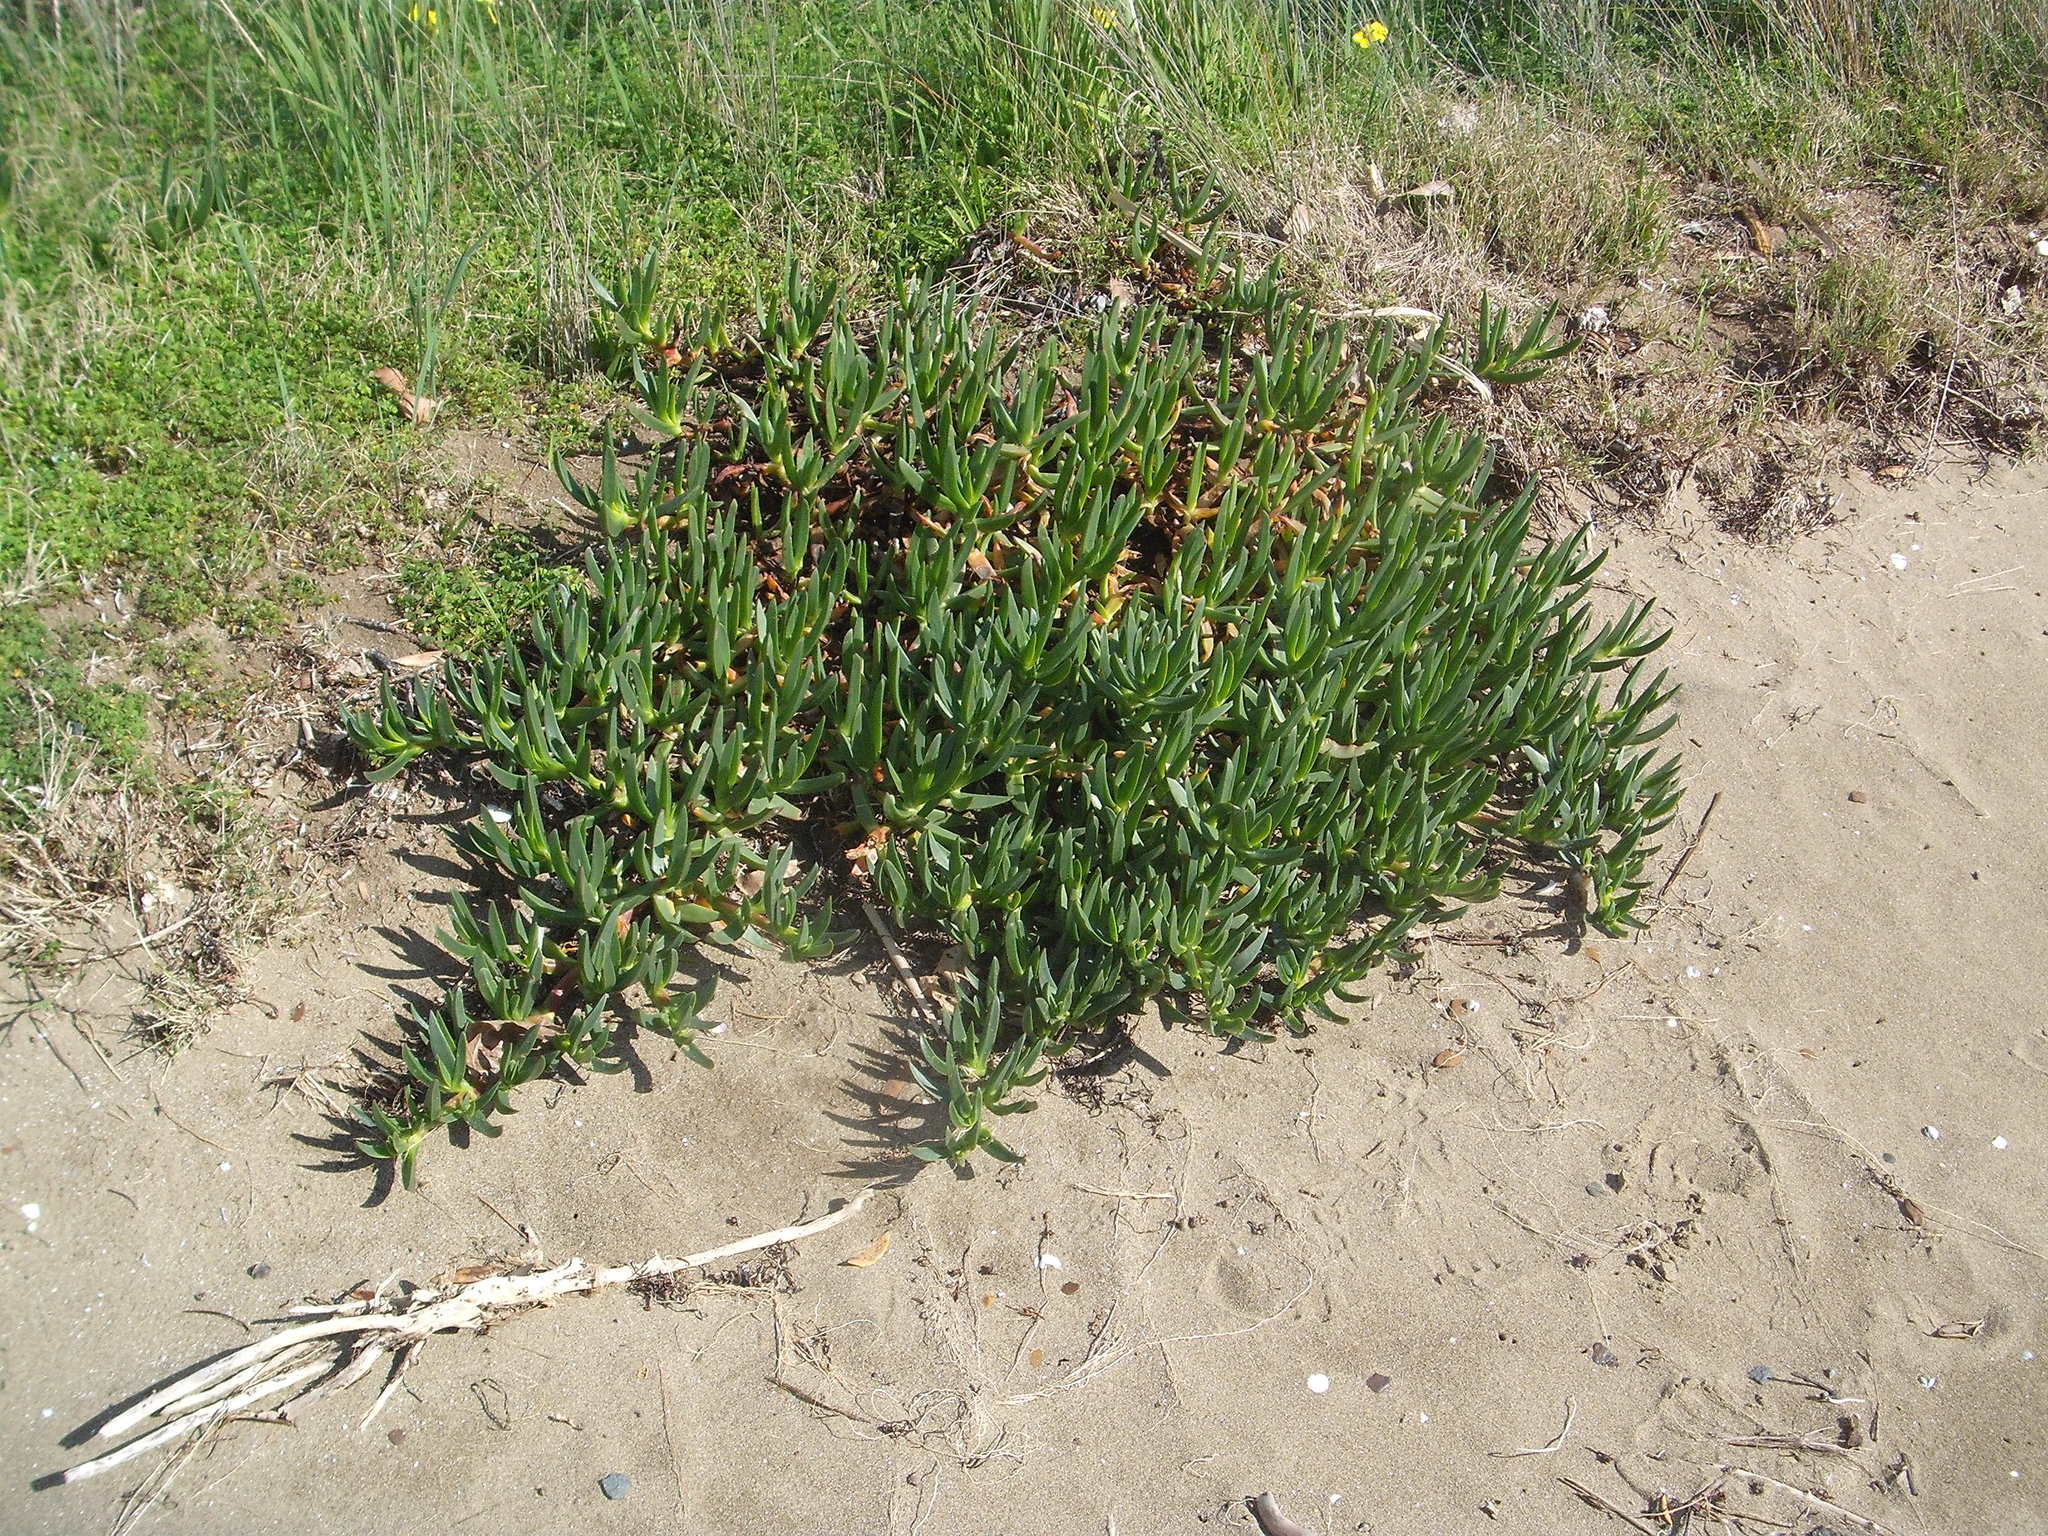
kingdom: Plantae
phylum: Tracheophyta
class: Magnoliopsida
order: Caryophyllales
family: Aizoaceae
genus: Carpobrotus
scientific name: Carpobrotus edulis
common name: Hottentot-fig
